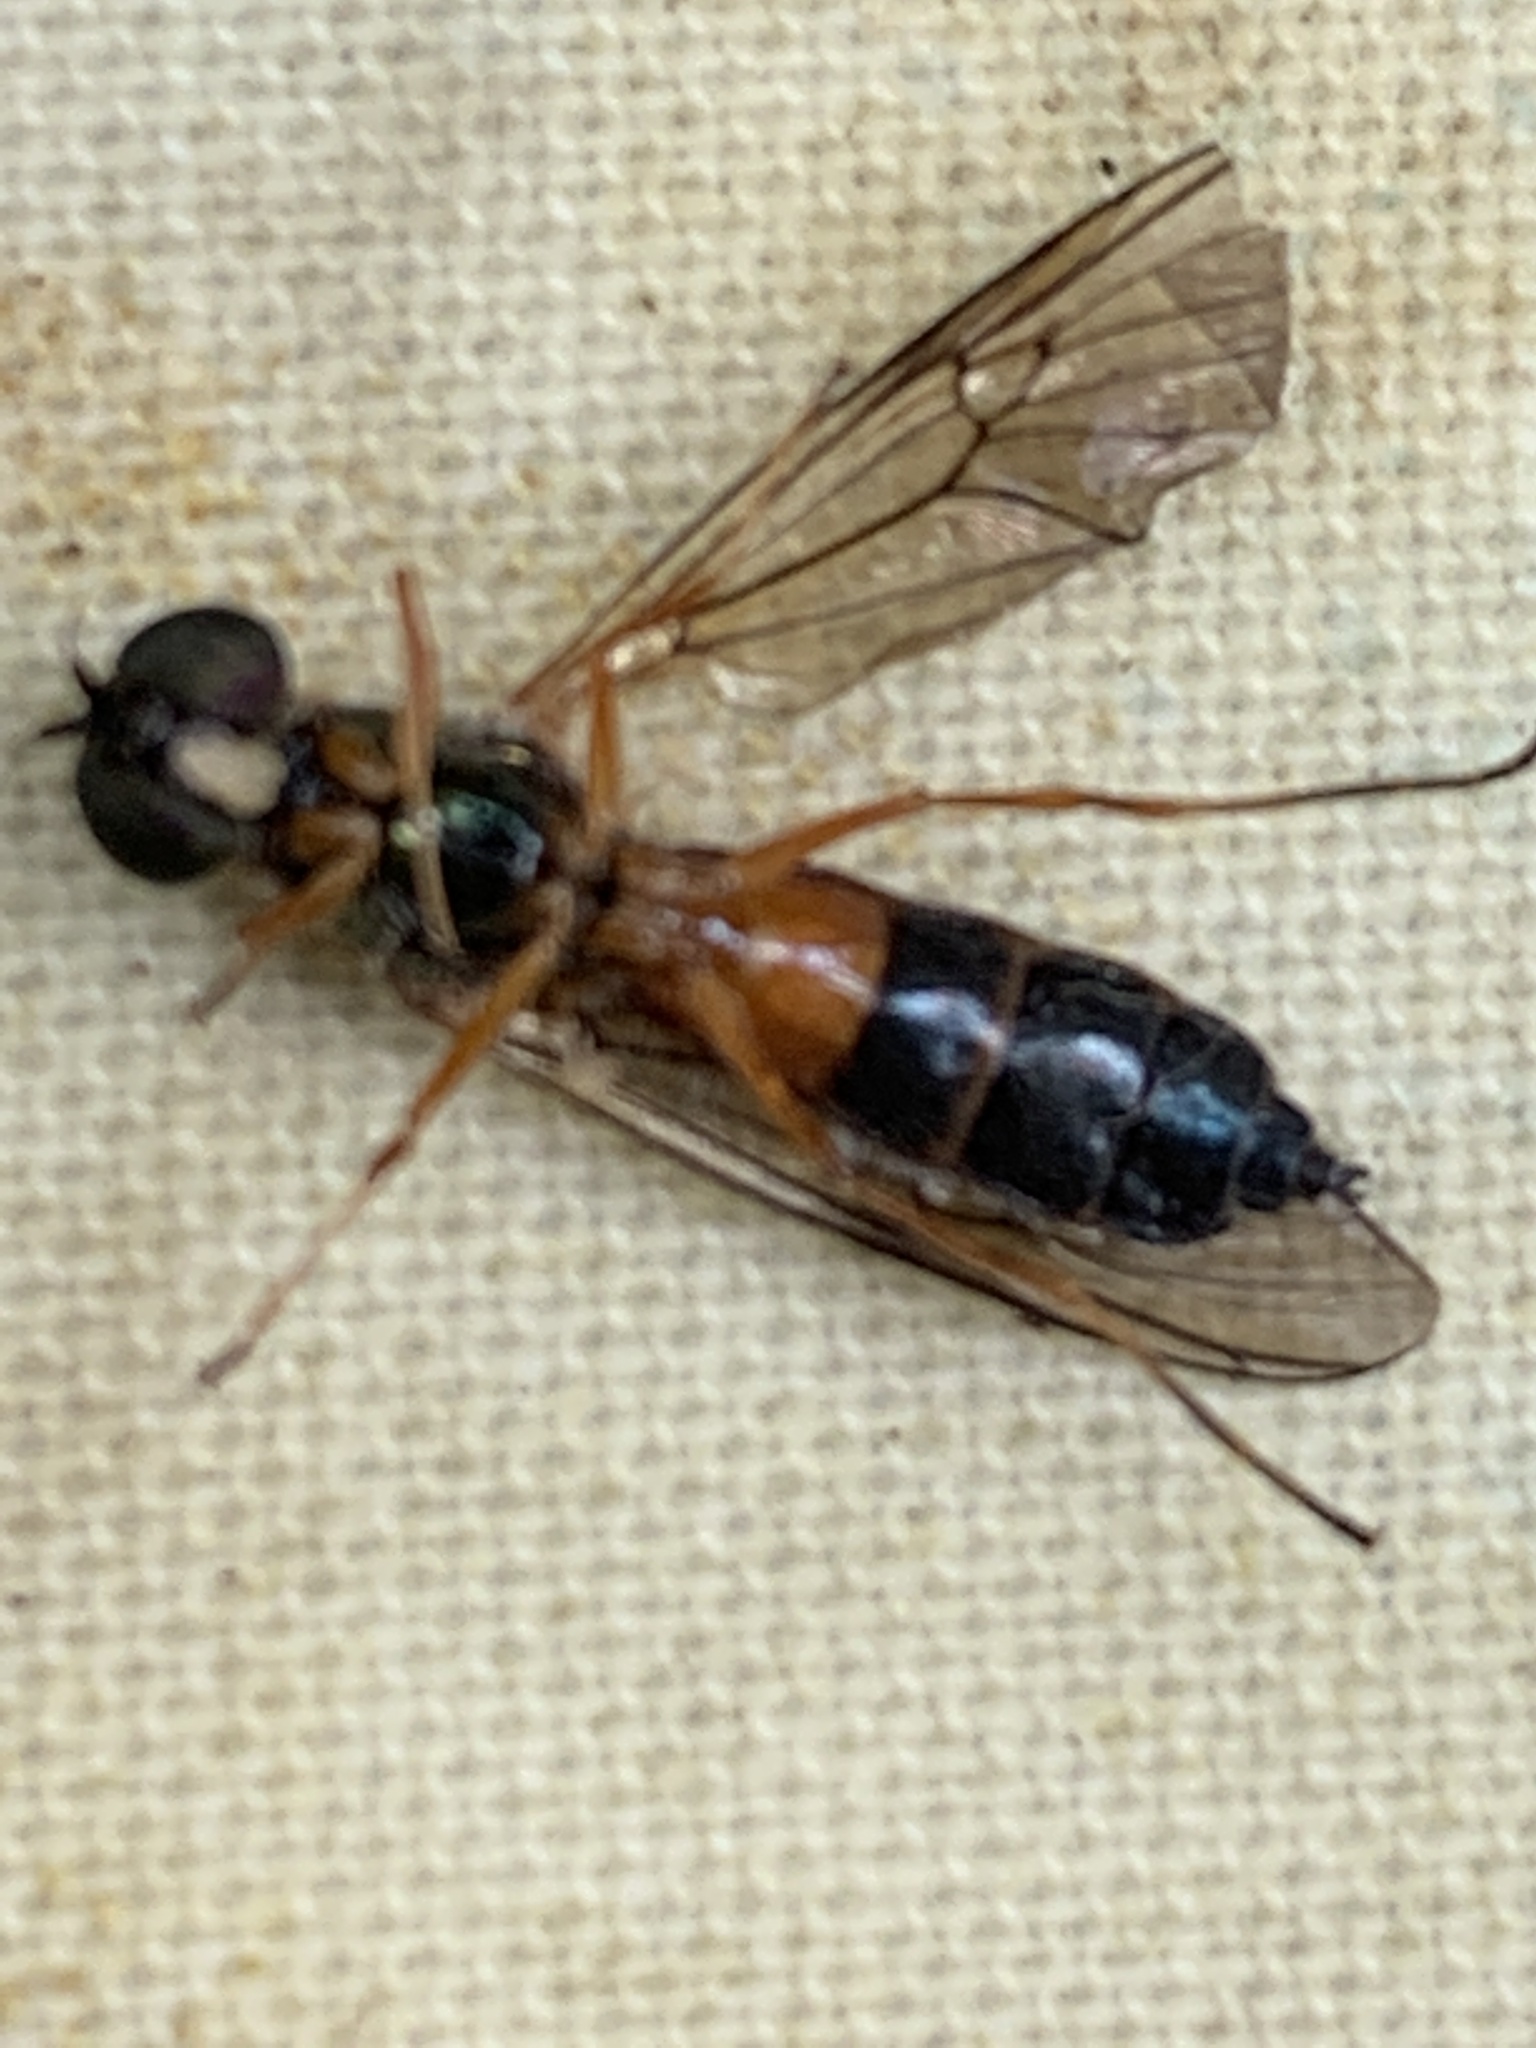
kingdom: Animalia
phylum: Arthropoda
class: Insecta
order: Diptera
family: Stratiomyidae
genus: Sargus
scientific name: Sargus bipunctatus
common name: Twin-spot centurion
